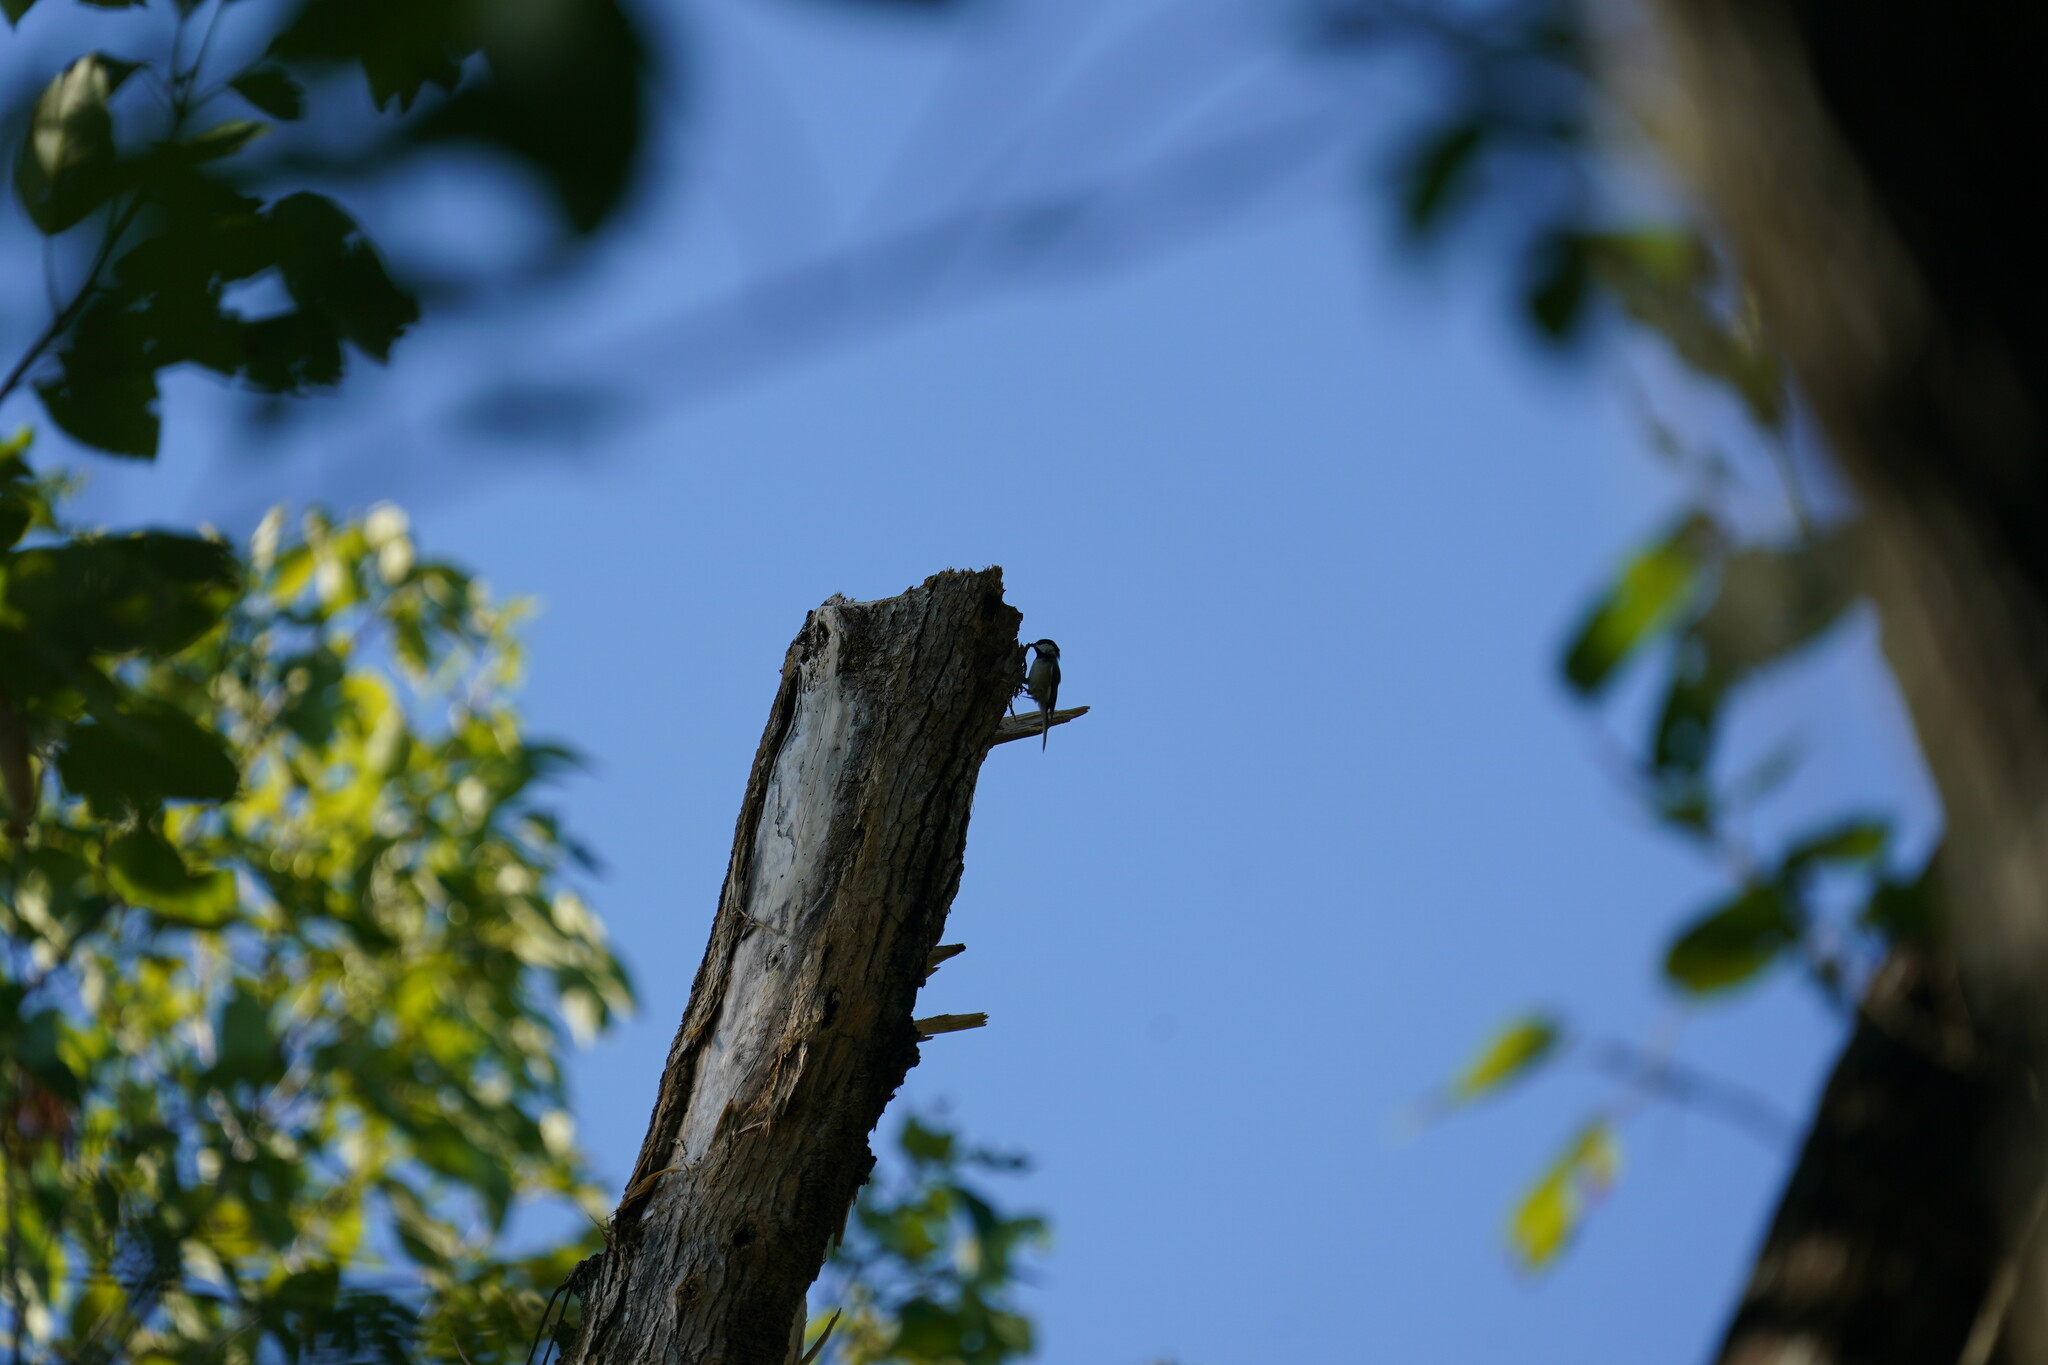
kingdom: Animalia
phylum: Chordata
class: Aves
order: Passeriformes
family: Paridae
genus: Poecile
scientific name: Poecile carolinensis
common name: Carolina chickadee
